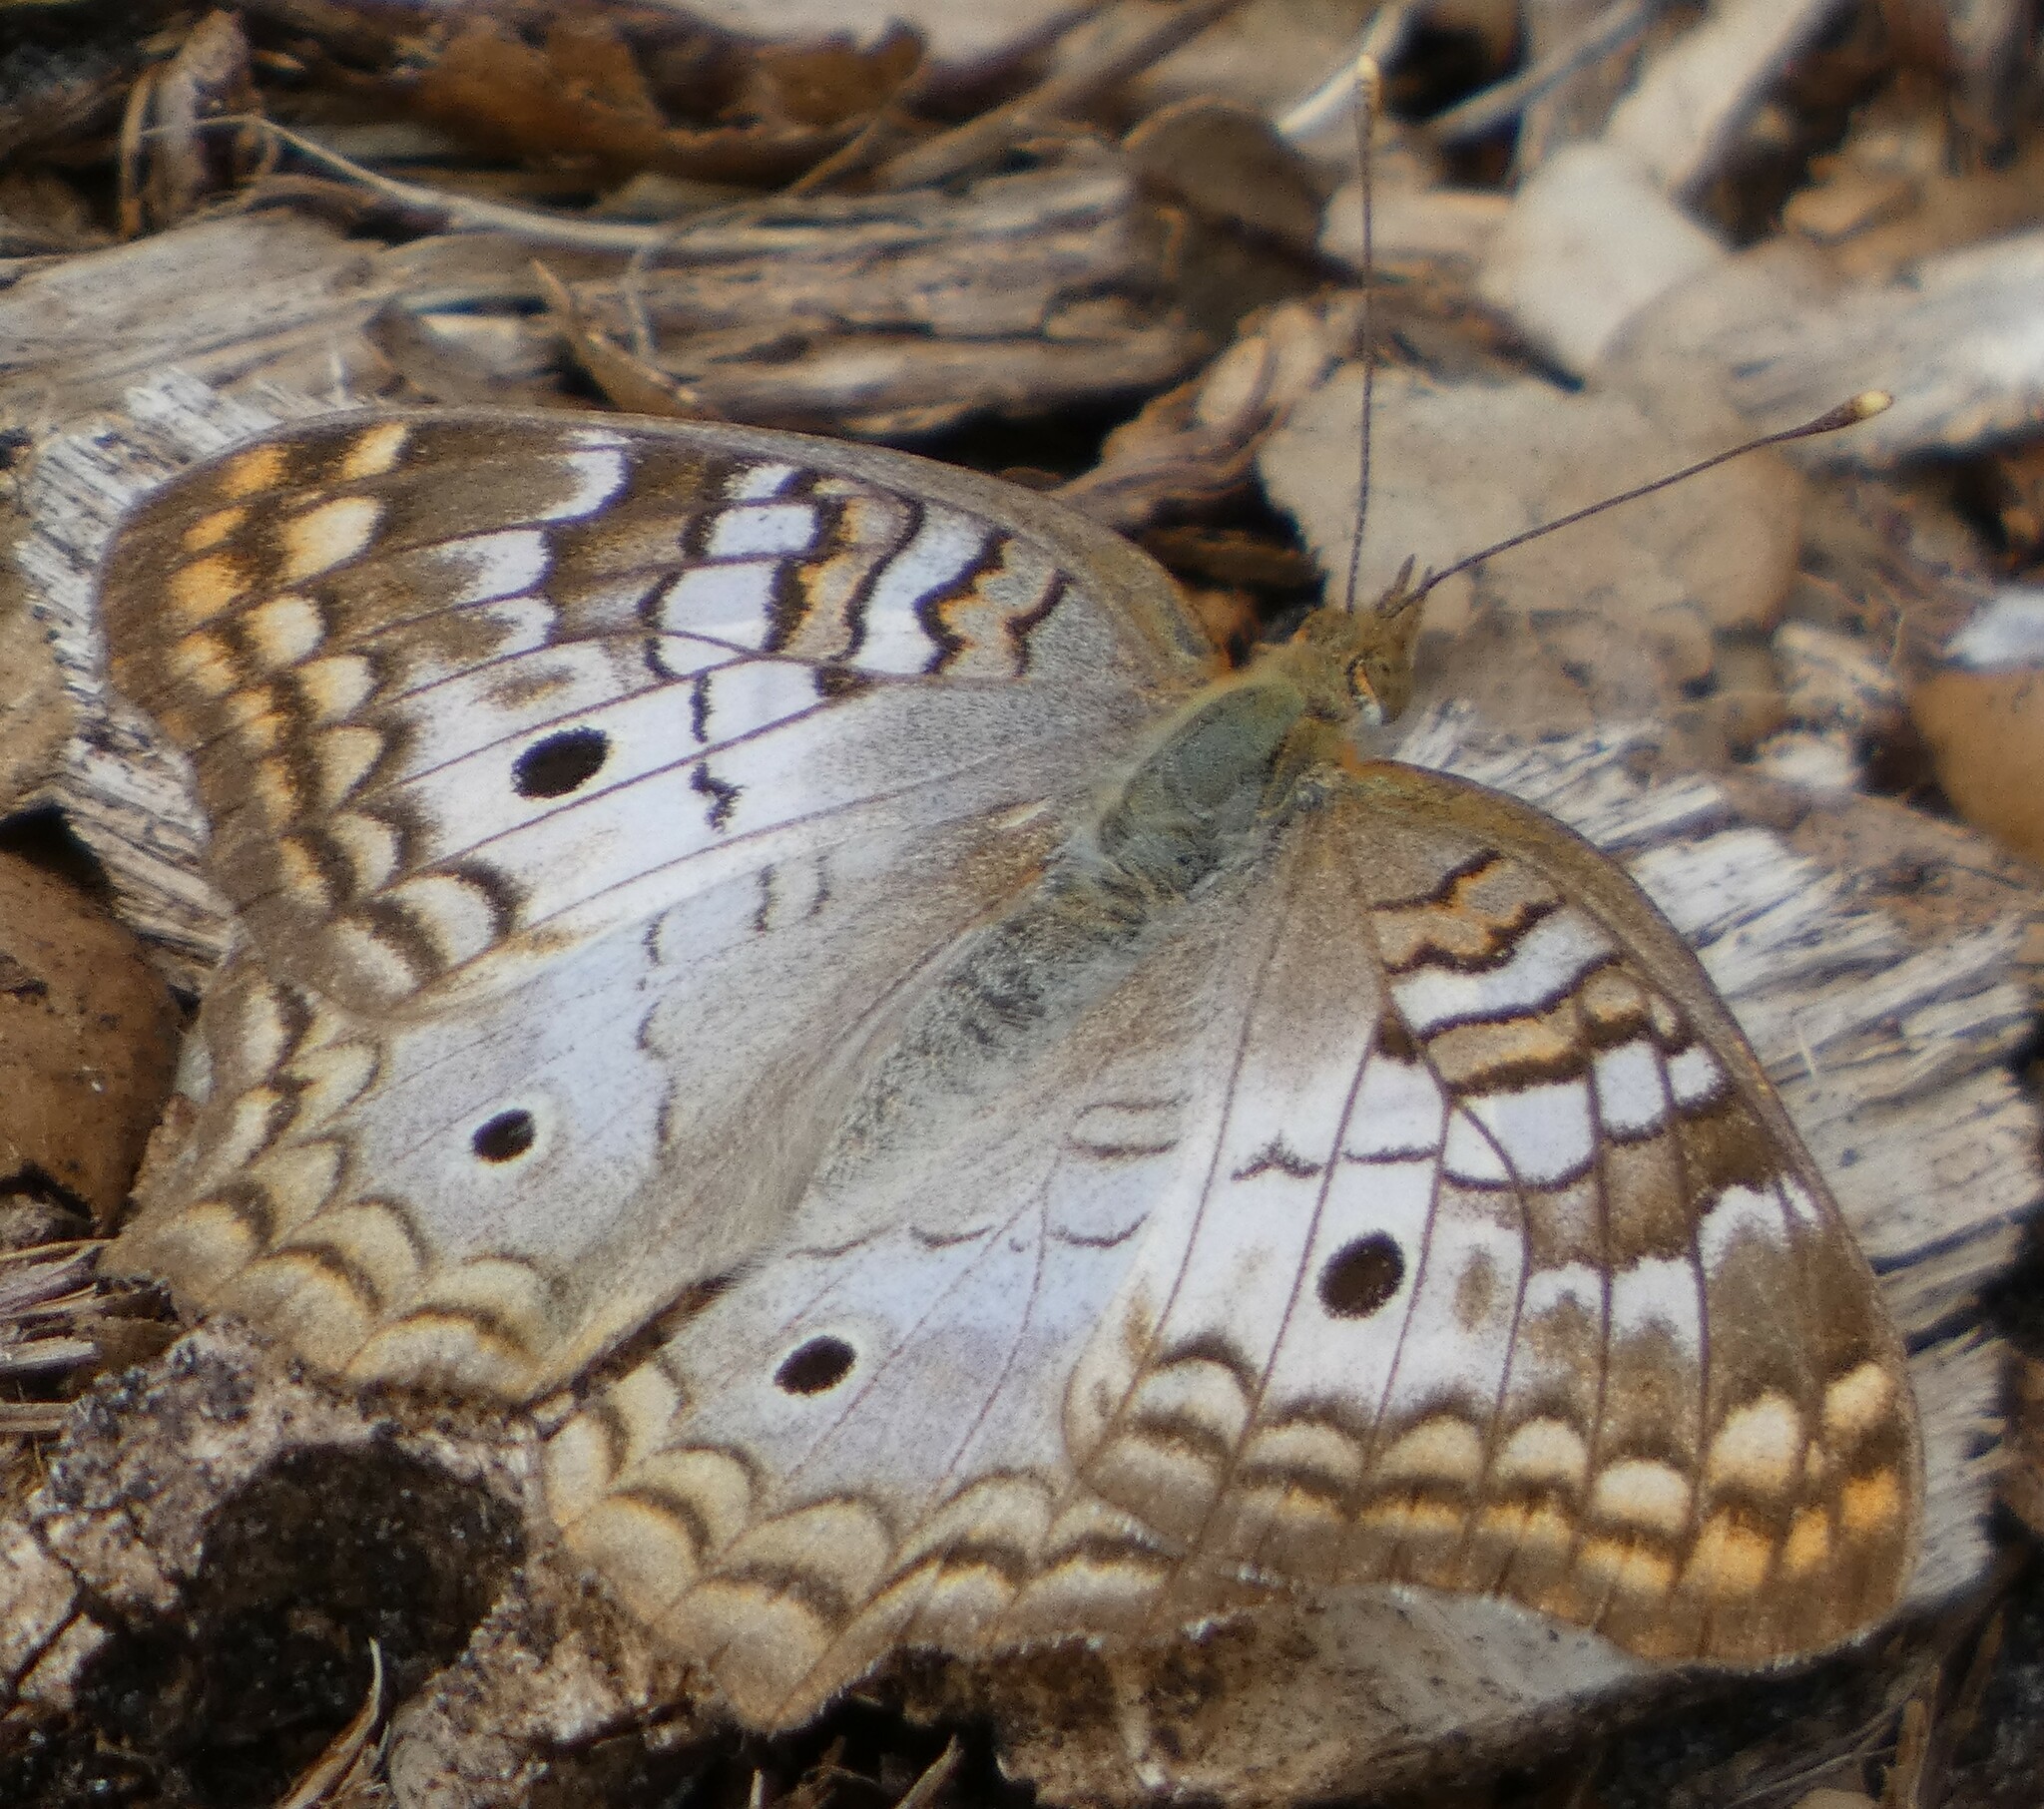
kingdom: Animalia
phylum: Arthropoda
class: Insecta
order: Lepidoptera
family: Nymphalidae
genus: Anartia
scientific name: Anartia jatrophae
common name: White peacock
